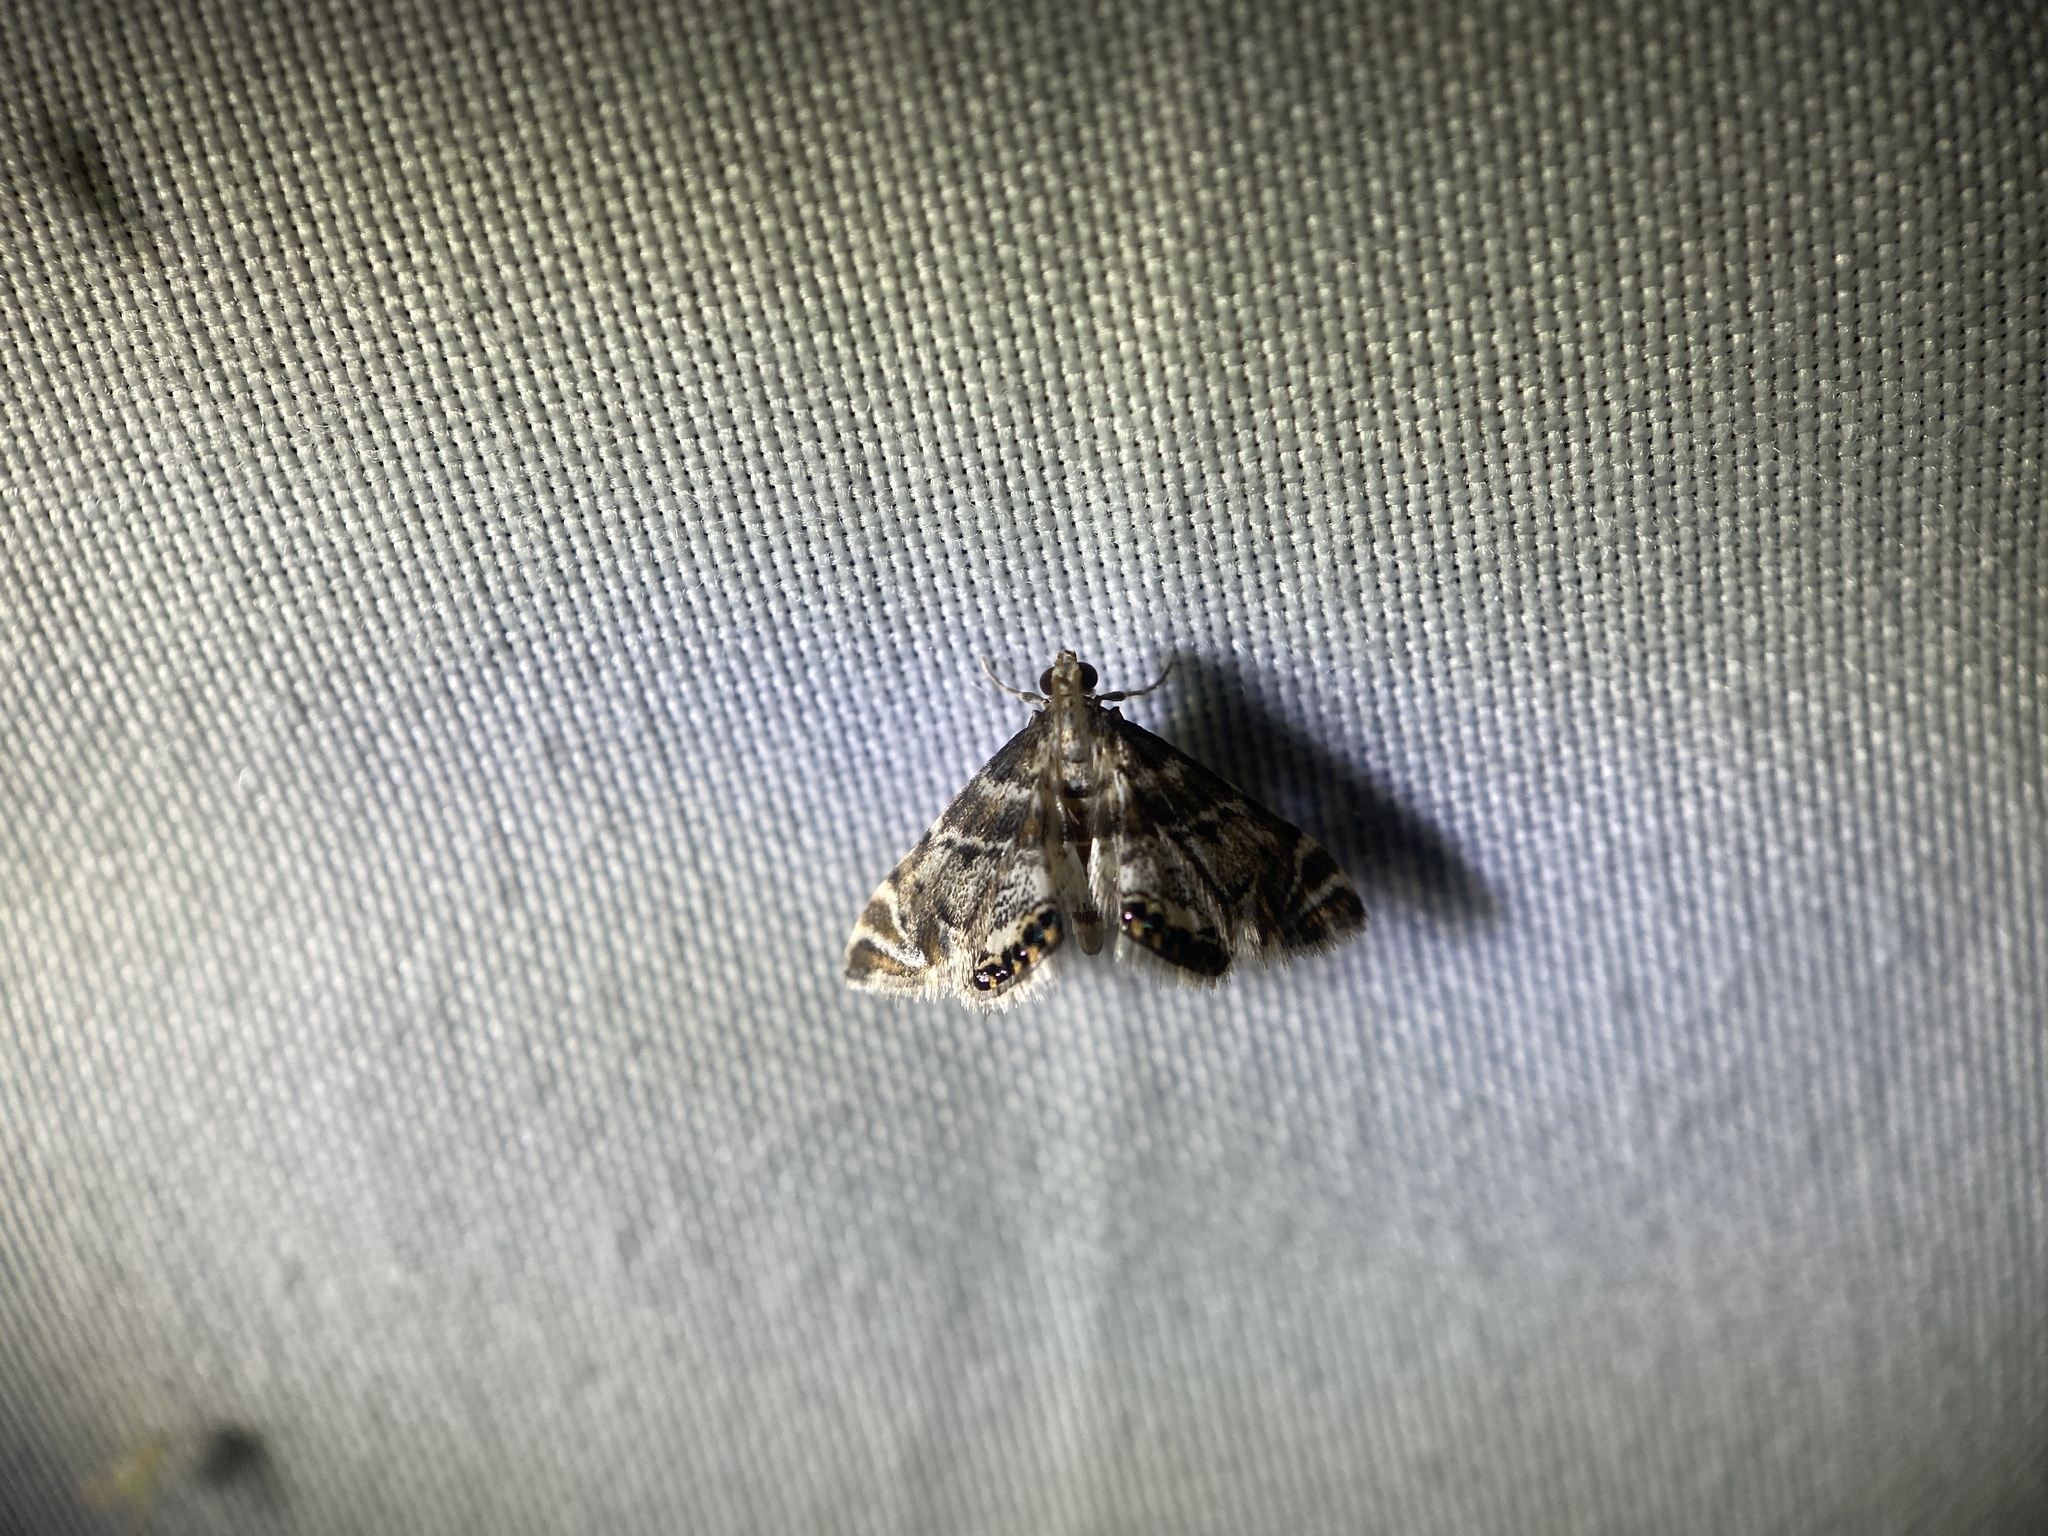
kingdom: Animalia
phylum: Arthropoda
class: Insecta
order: Lepidoptera
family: Crambidae
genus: Petrophila
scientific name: Petrophila fulicalis
